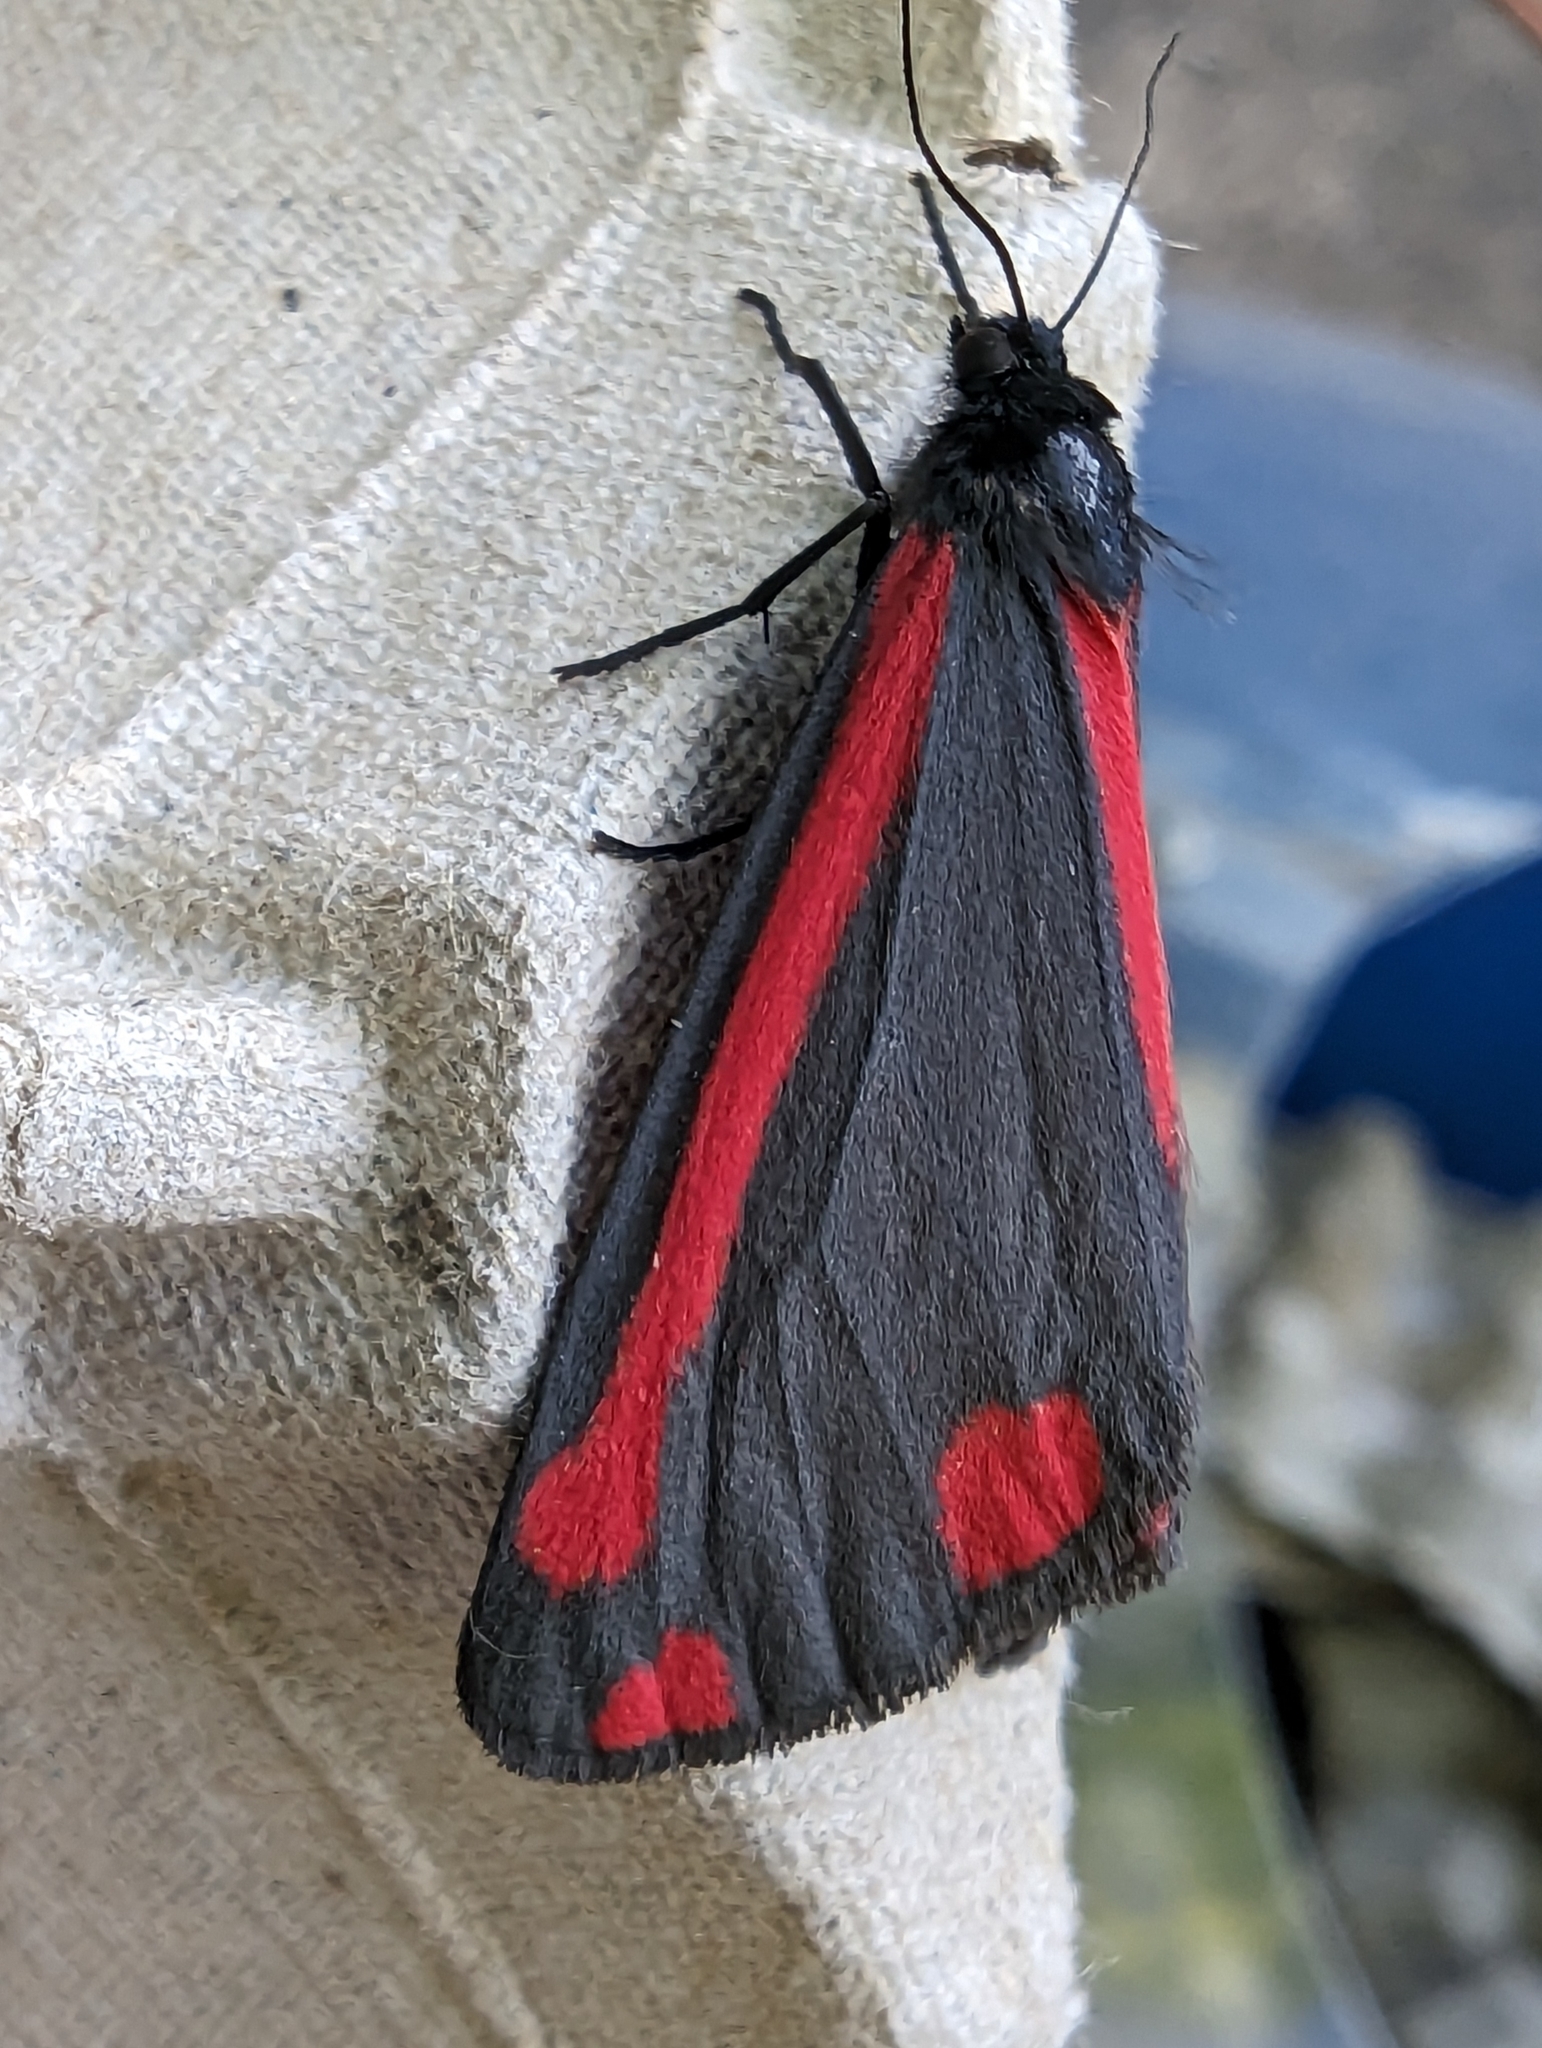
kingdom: Animalia
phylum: Arthropoda
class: Insecta
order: Lepidoptera
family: Erebidae
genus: Tyria
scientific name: Tyria jacobaeae
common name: Cinnabar
